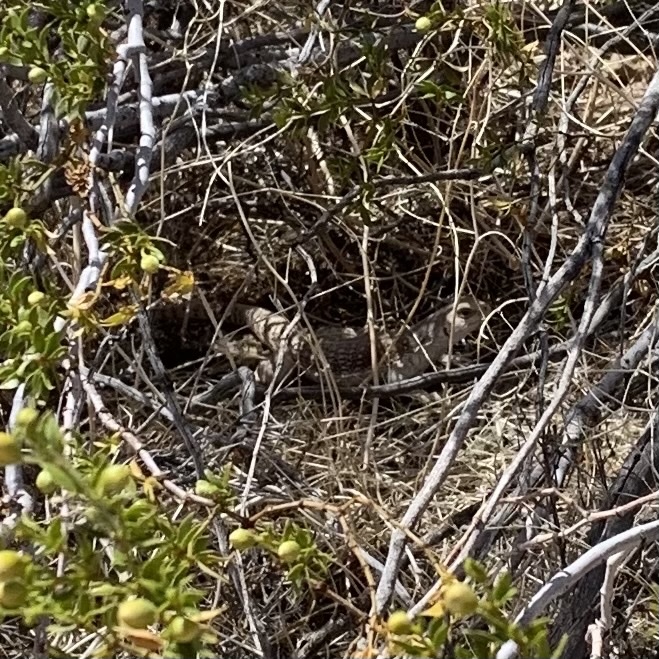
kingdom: Animalia
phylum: Chordata
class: Squamata
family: Iguanidae
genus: Dipsosaurus
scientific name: Dipsosaurus dorsalis
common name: Desert iguana
